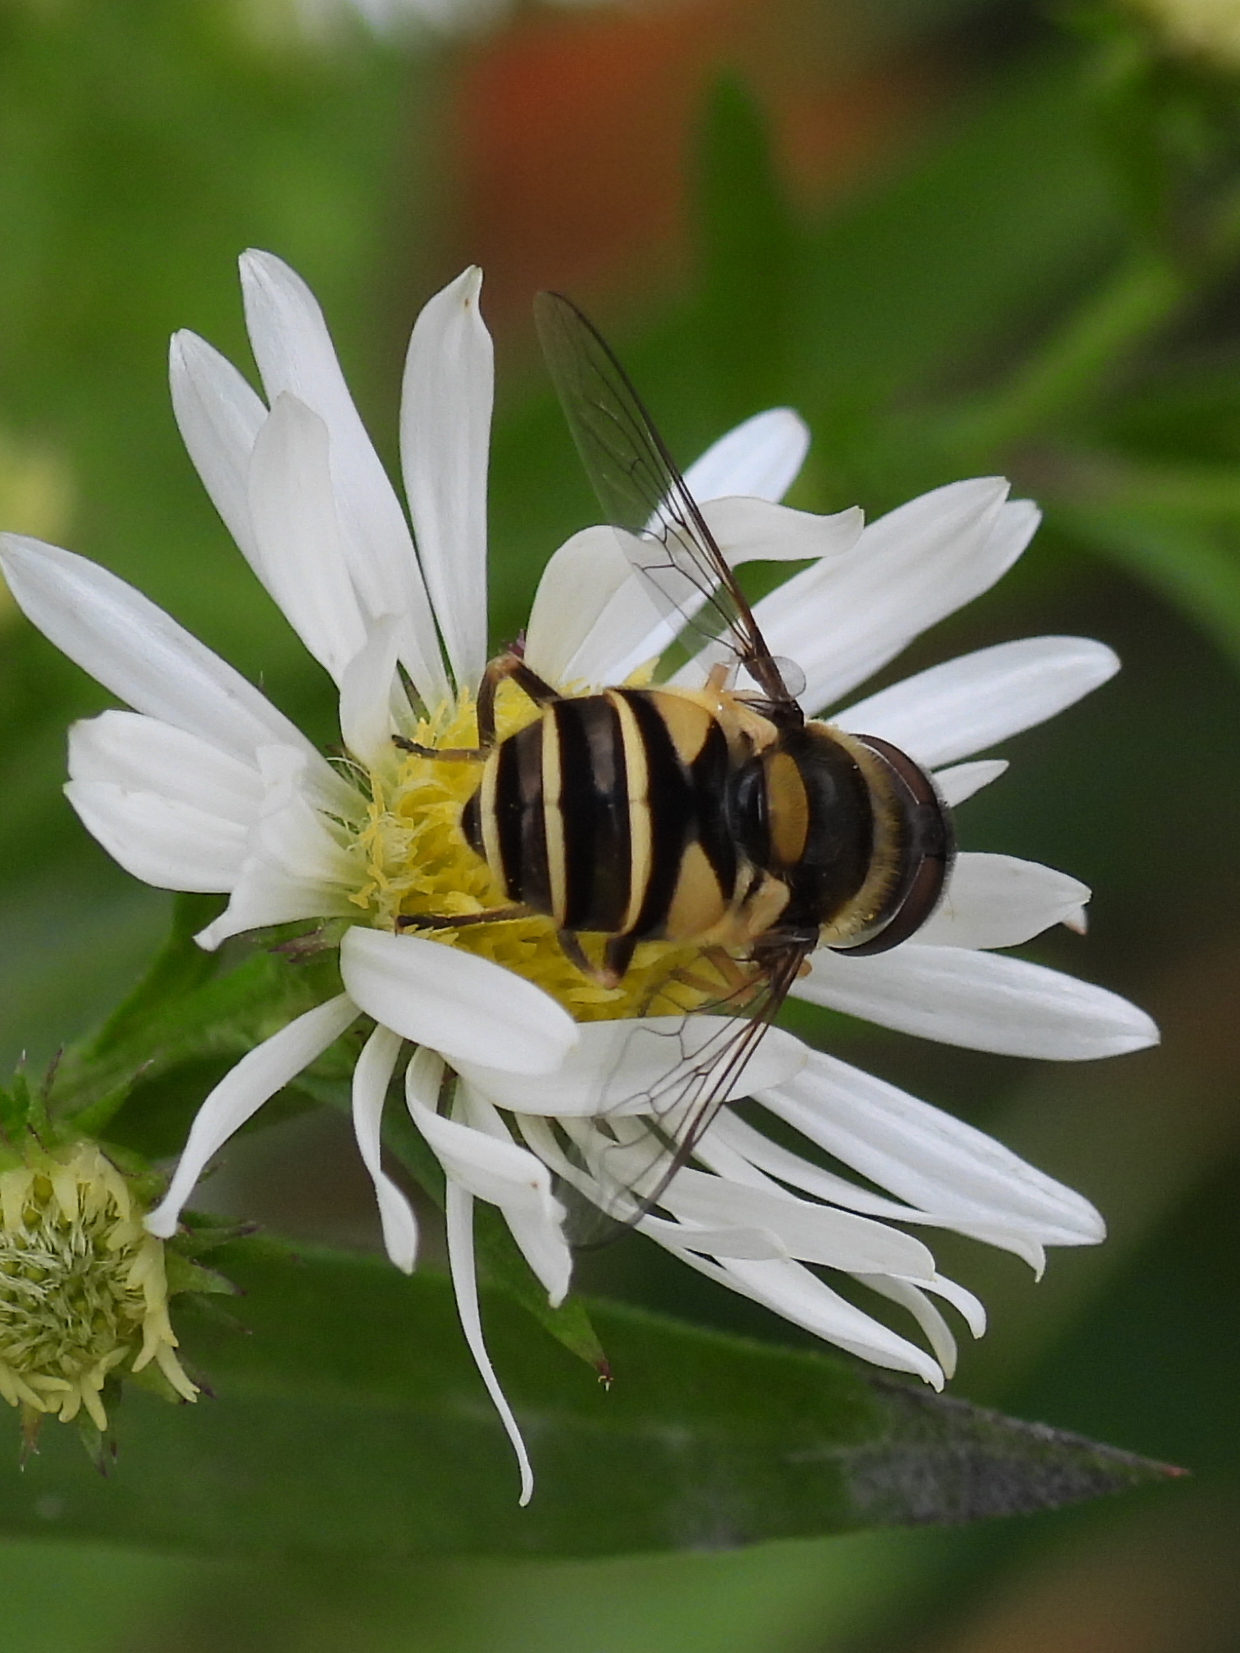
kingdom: Animalia
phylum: Arthropoda
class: Insecta
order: Diptera
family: Syrphidae
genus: Eristalis
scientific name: Eristalis transversa
